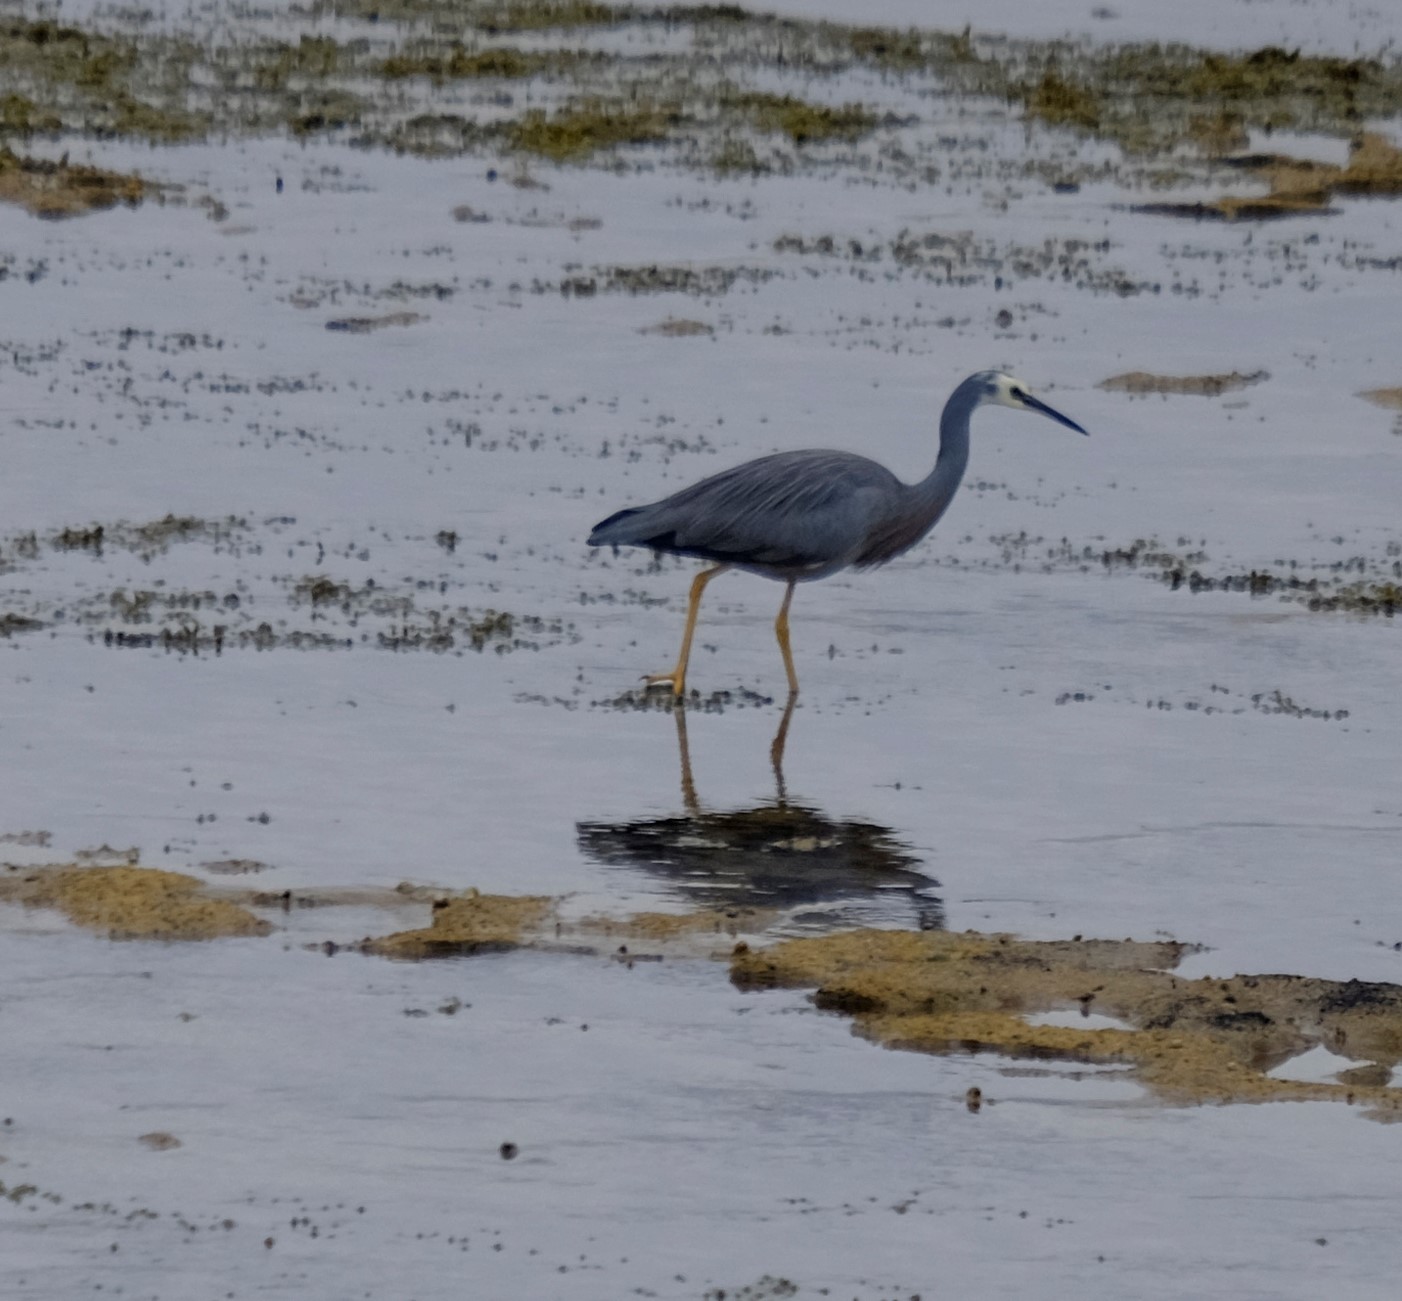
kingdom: Animalia
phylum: Chordata
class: Aves
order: Pelecaniformes
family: Ardeidae
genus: Egretta
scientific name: Egretta novaehollandiae
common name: White-faced heron
